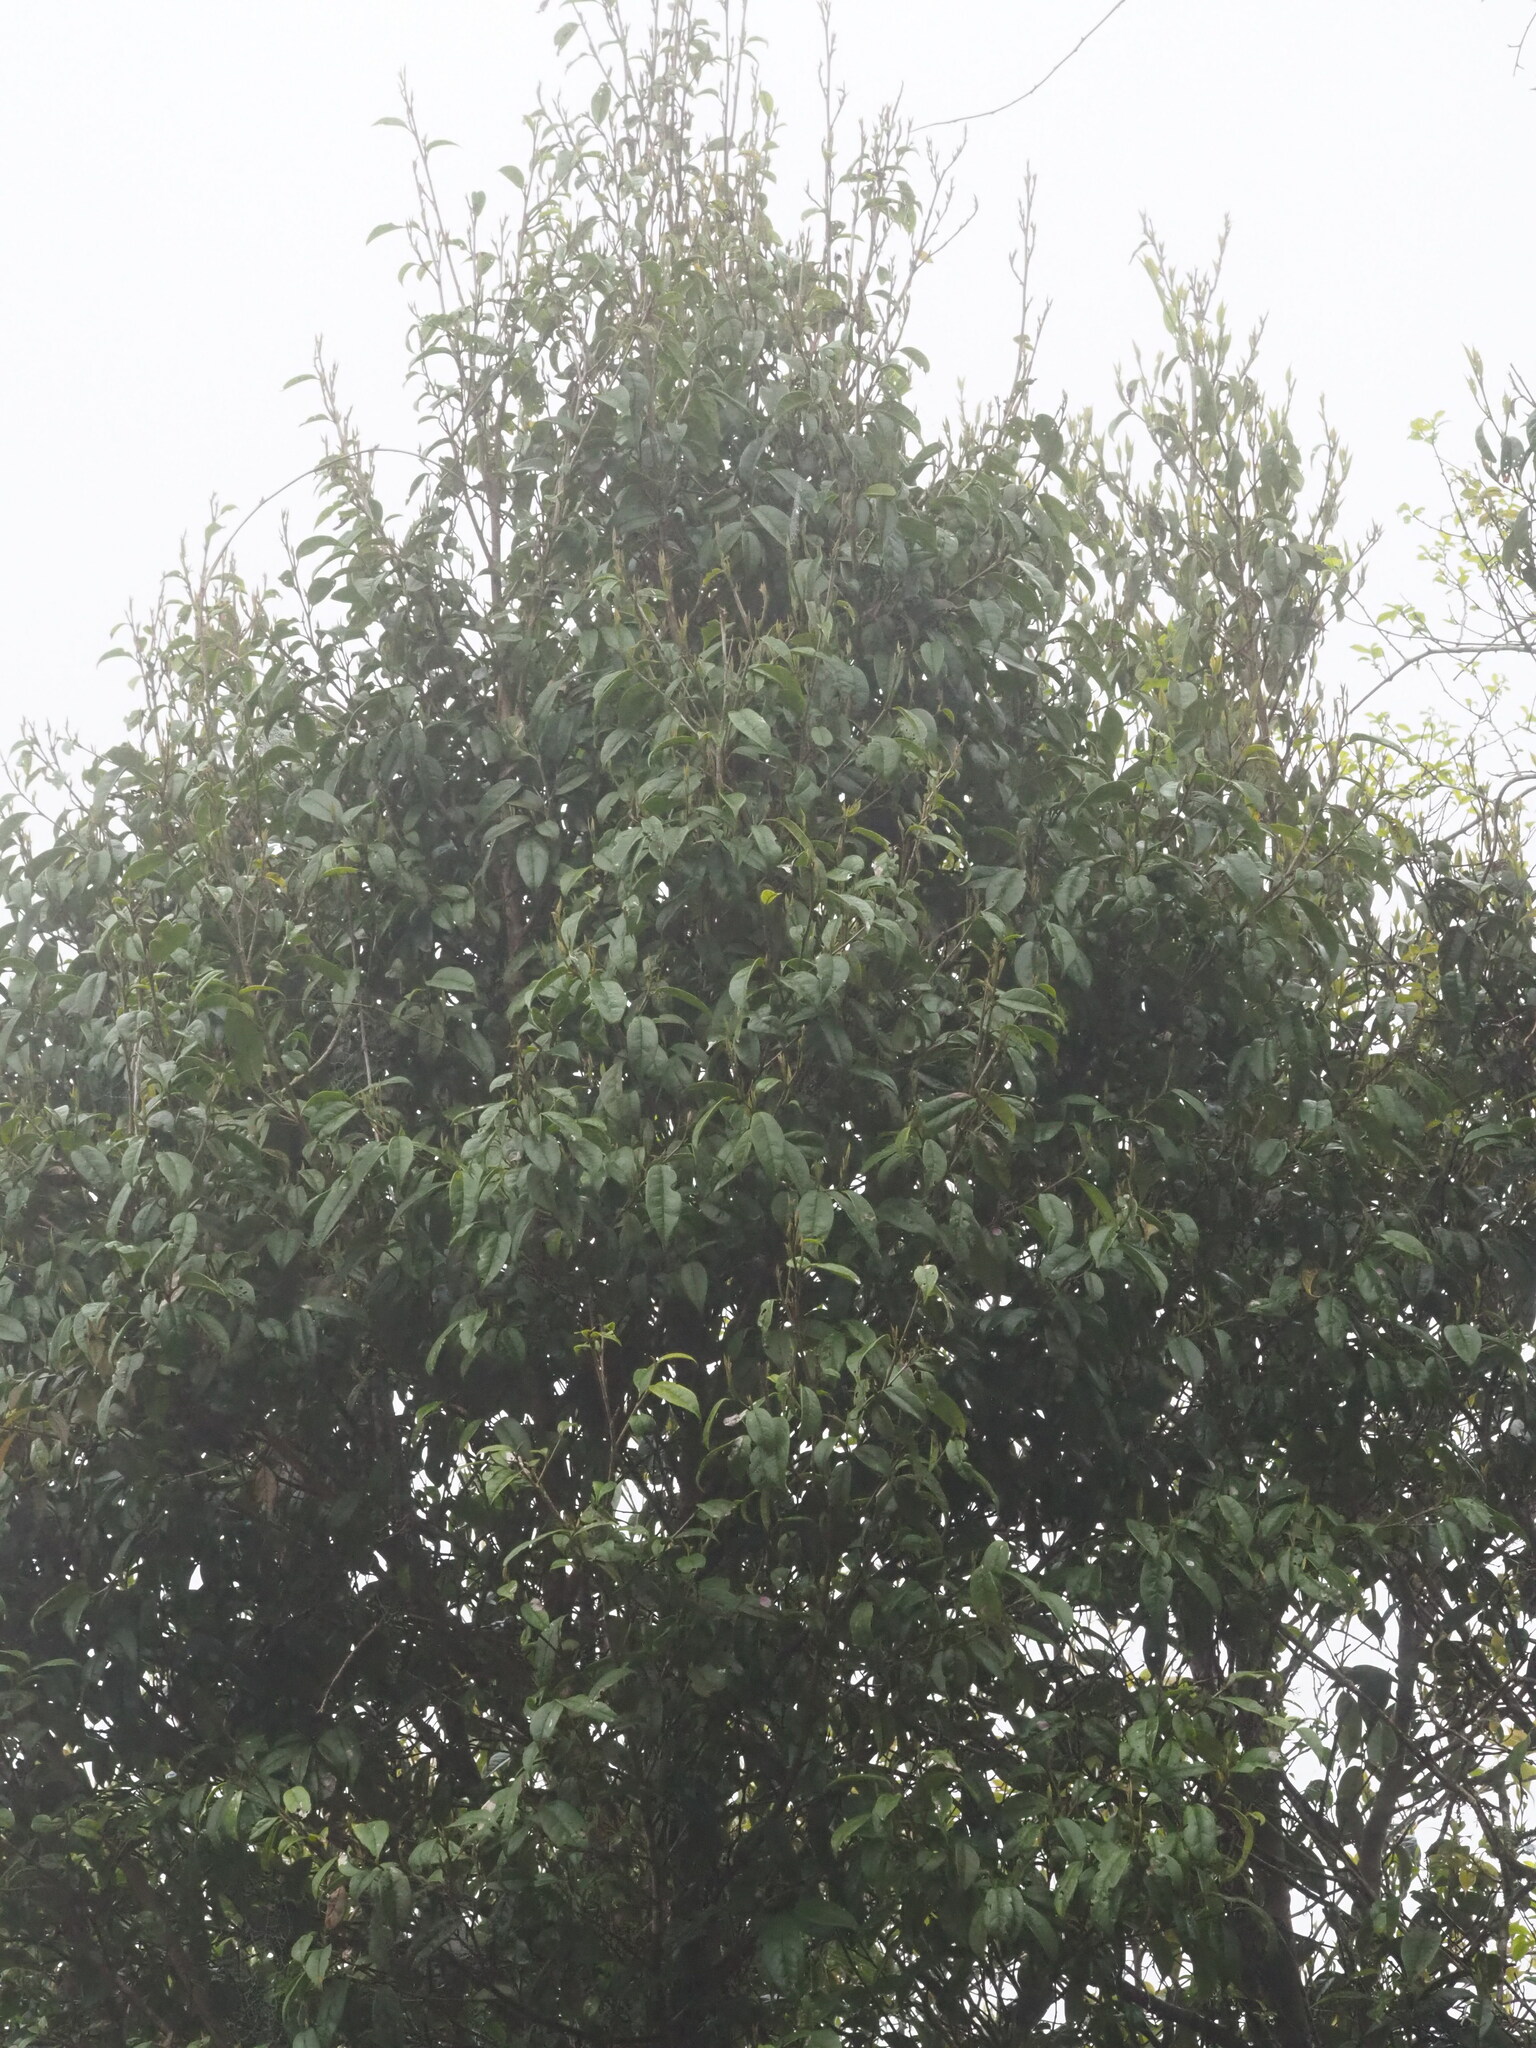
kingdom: Plantae
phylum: Tracheophyta
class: Magnoliopsida
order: Saxifragales
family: Hamamelidaceae
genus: Sycopsis
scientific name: Sycopsis sinensis
